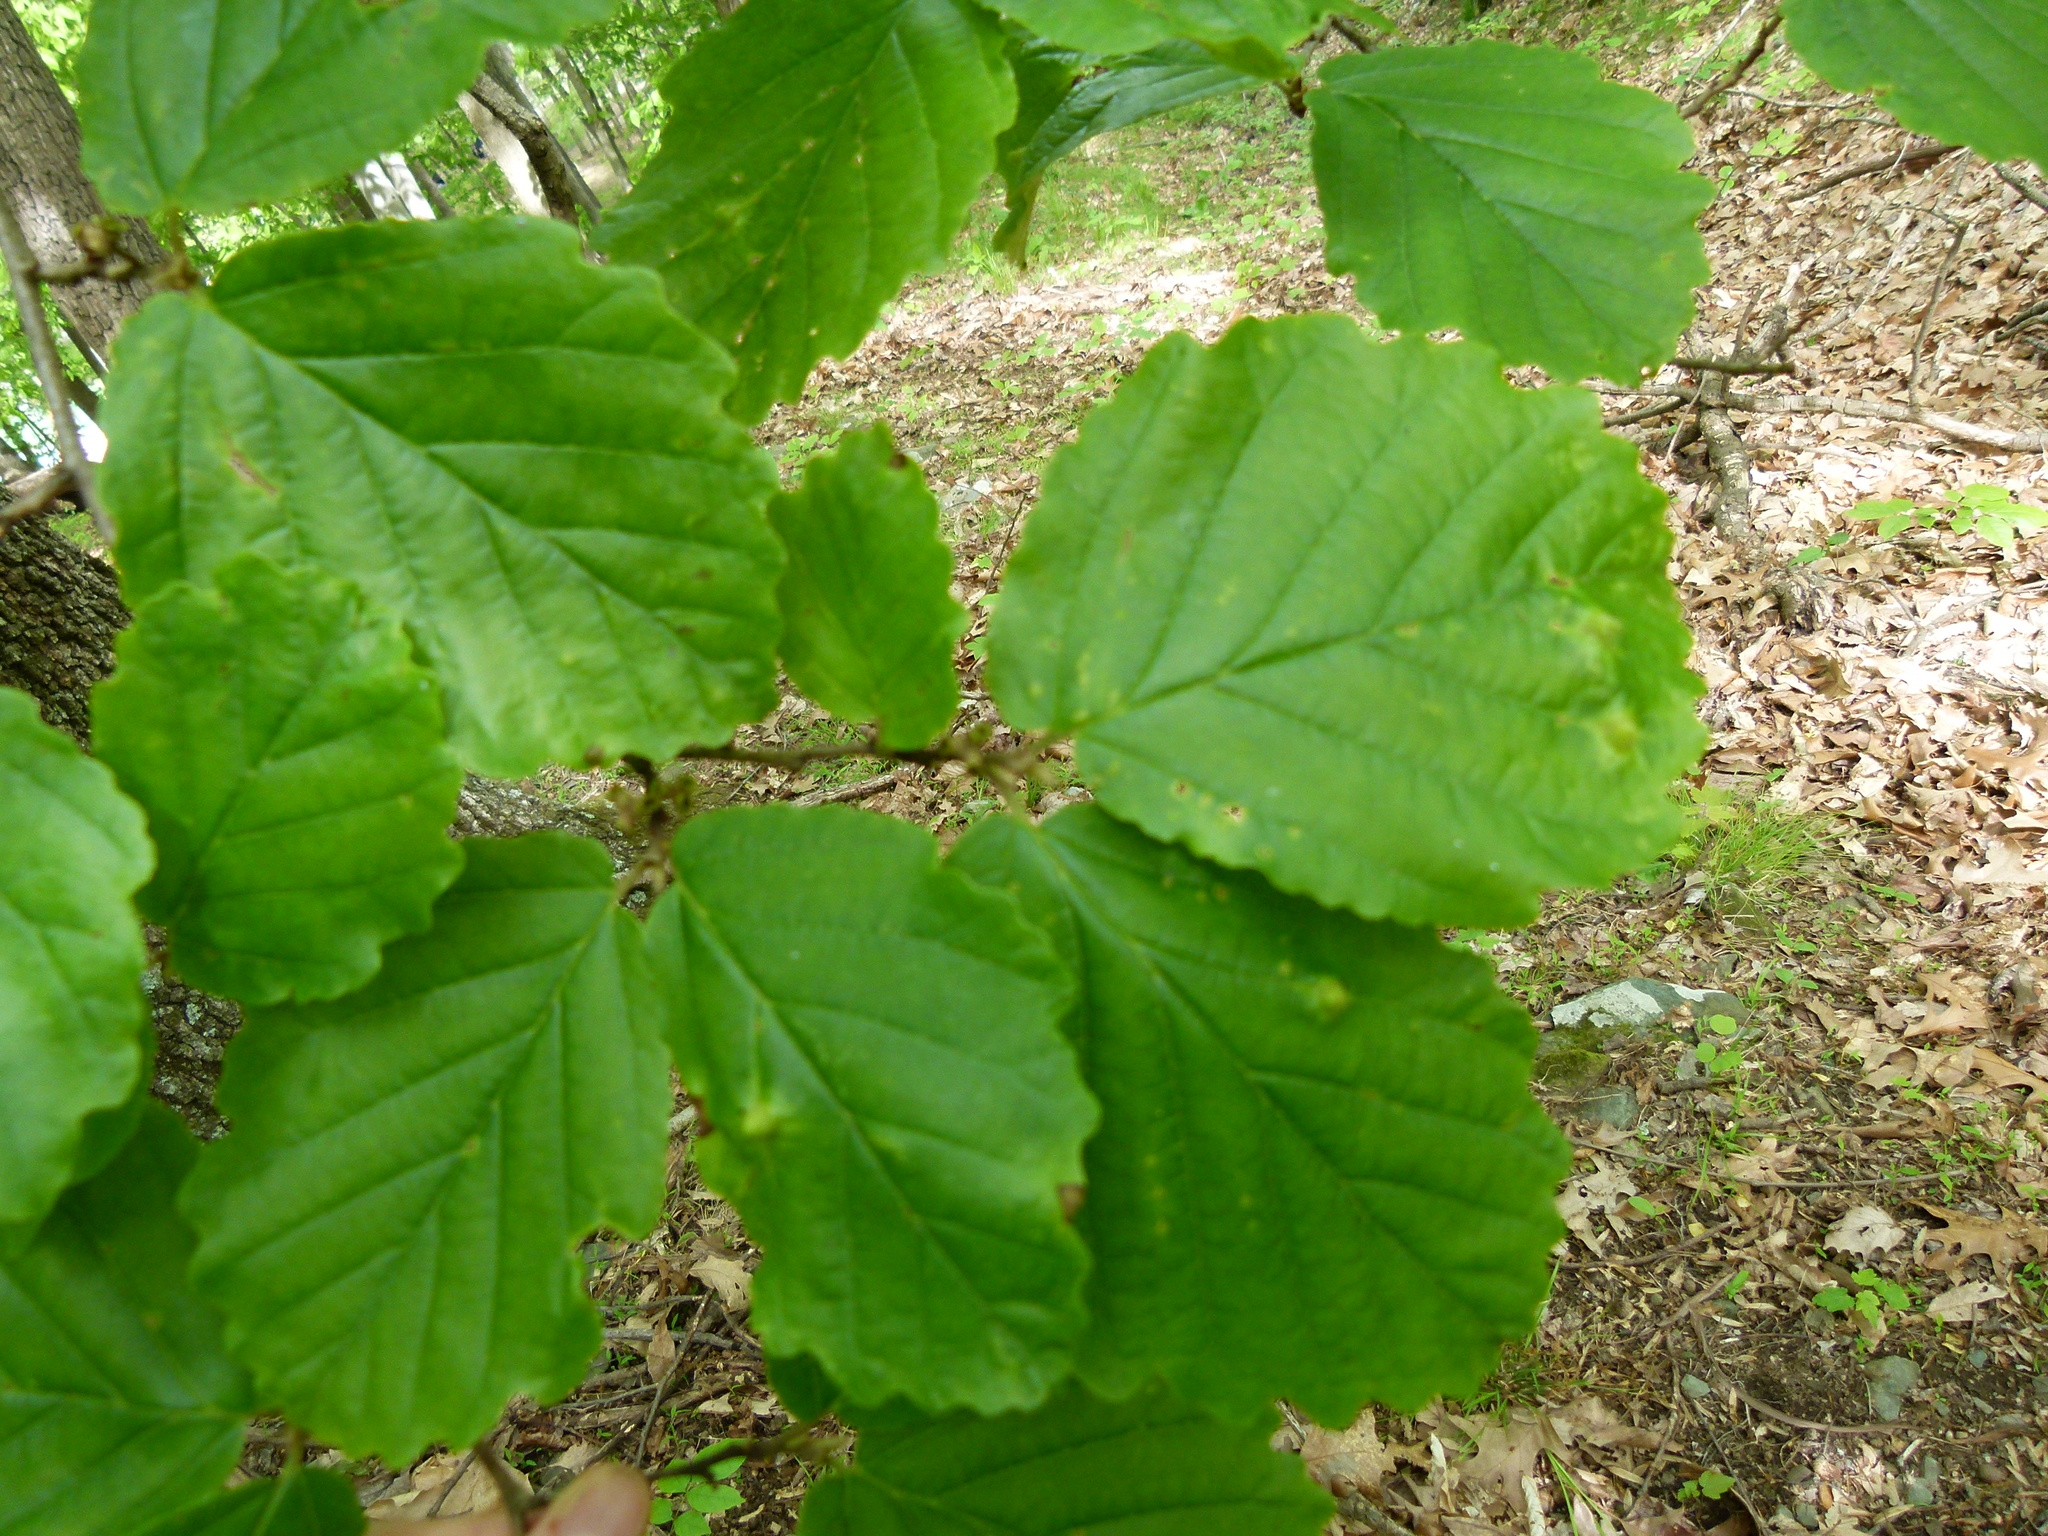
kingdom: Plantae
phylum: Tracheophyta
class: Magnoliopsida
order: Saxifragales
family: Hamamelidaceae
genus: Hamamelis
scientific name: Hamamelis virginiana
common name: Witch-hazel
